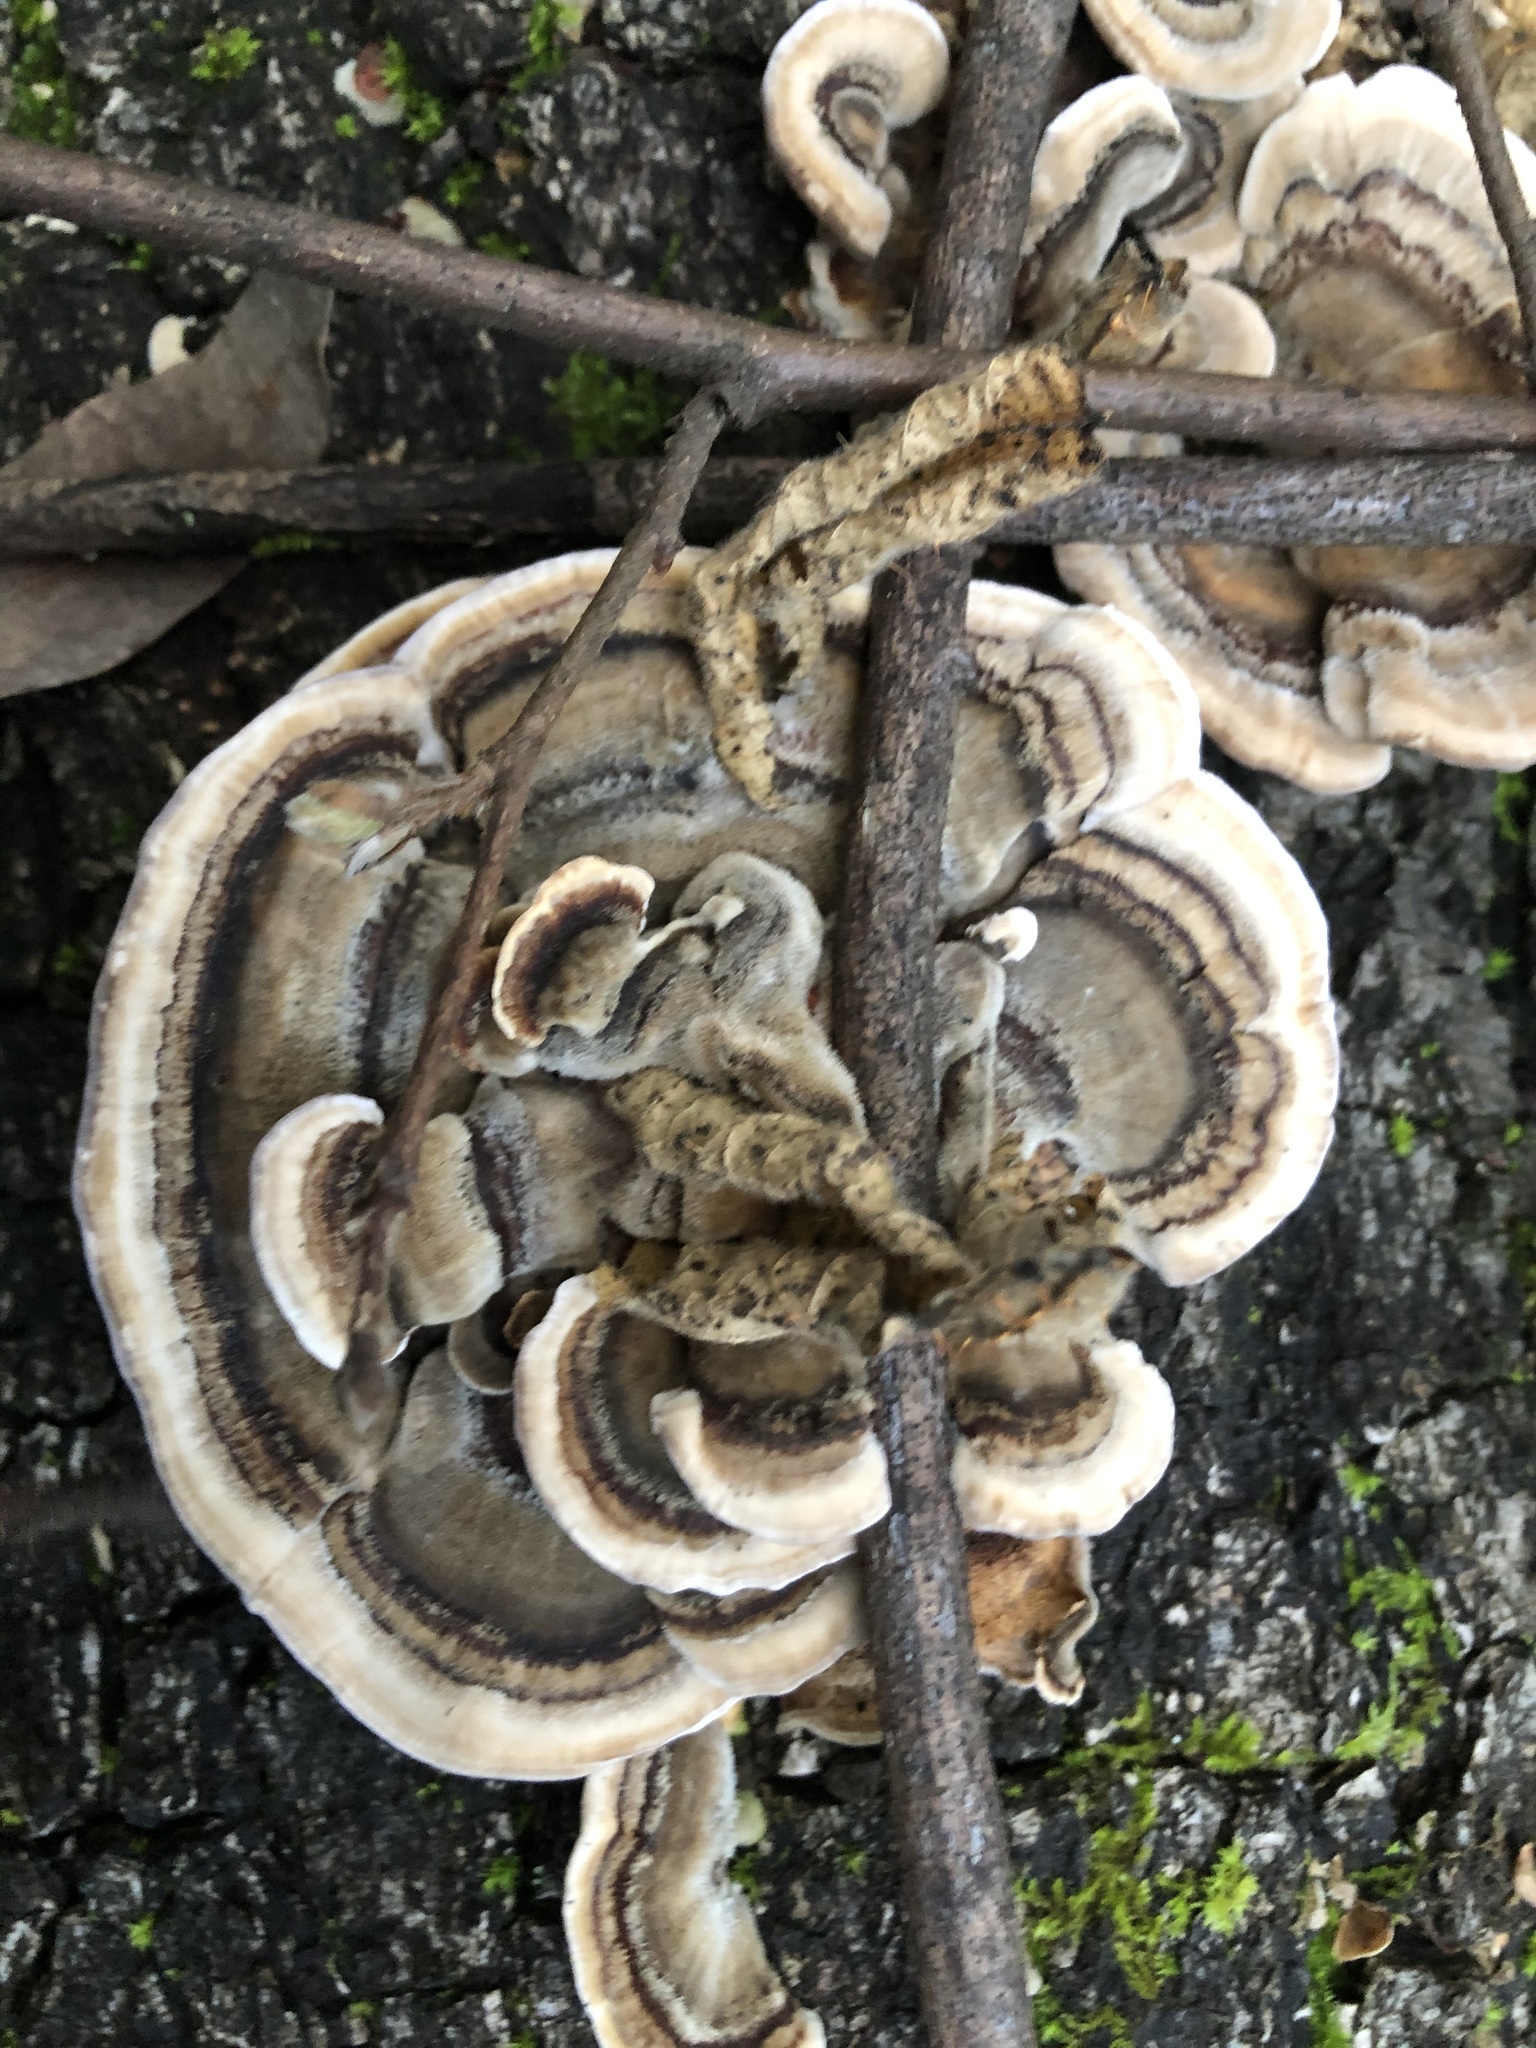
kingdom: Fungi
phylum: Basidiomycota
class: Agaricomycetes
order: Polyporales
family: Polyporaceae
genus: Trametes
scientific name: Trametes versicolor
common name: Turkeytail
